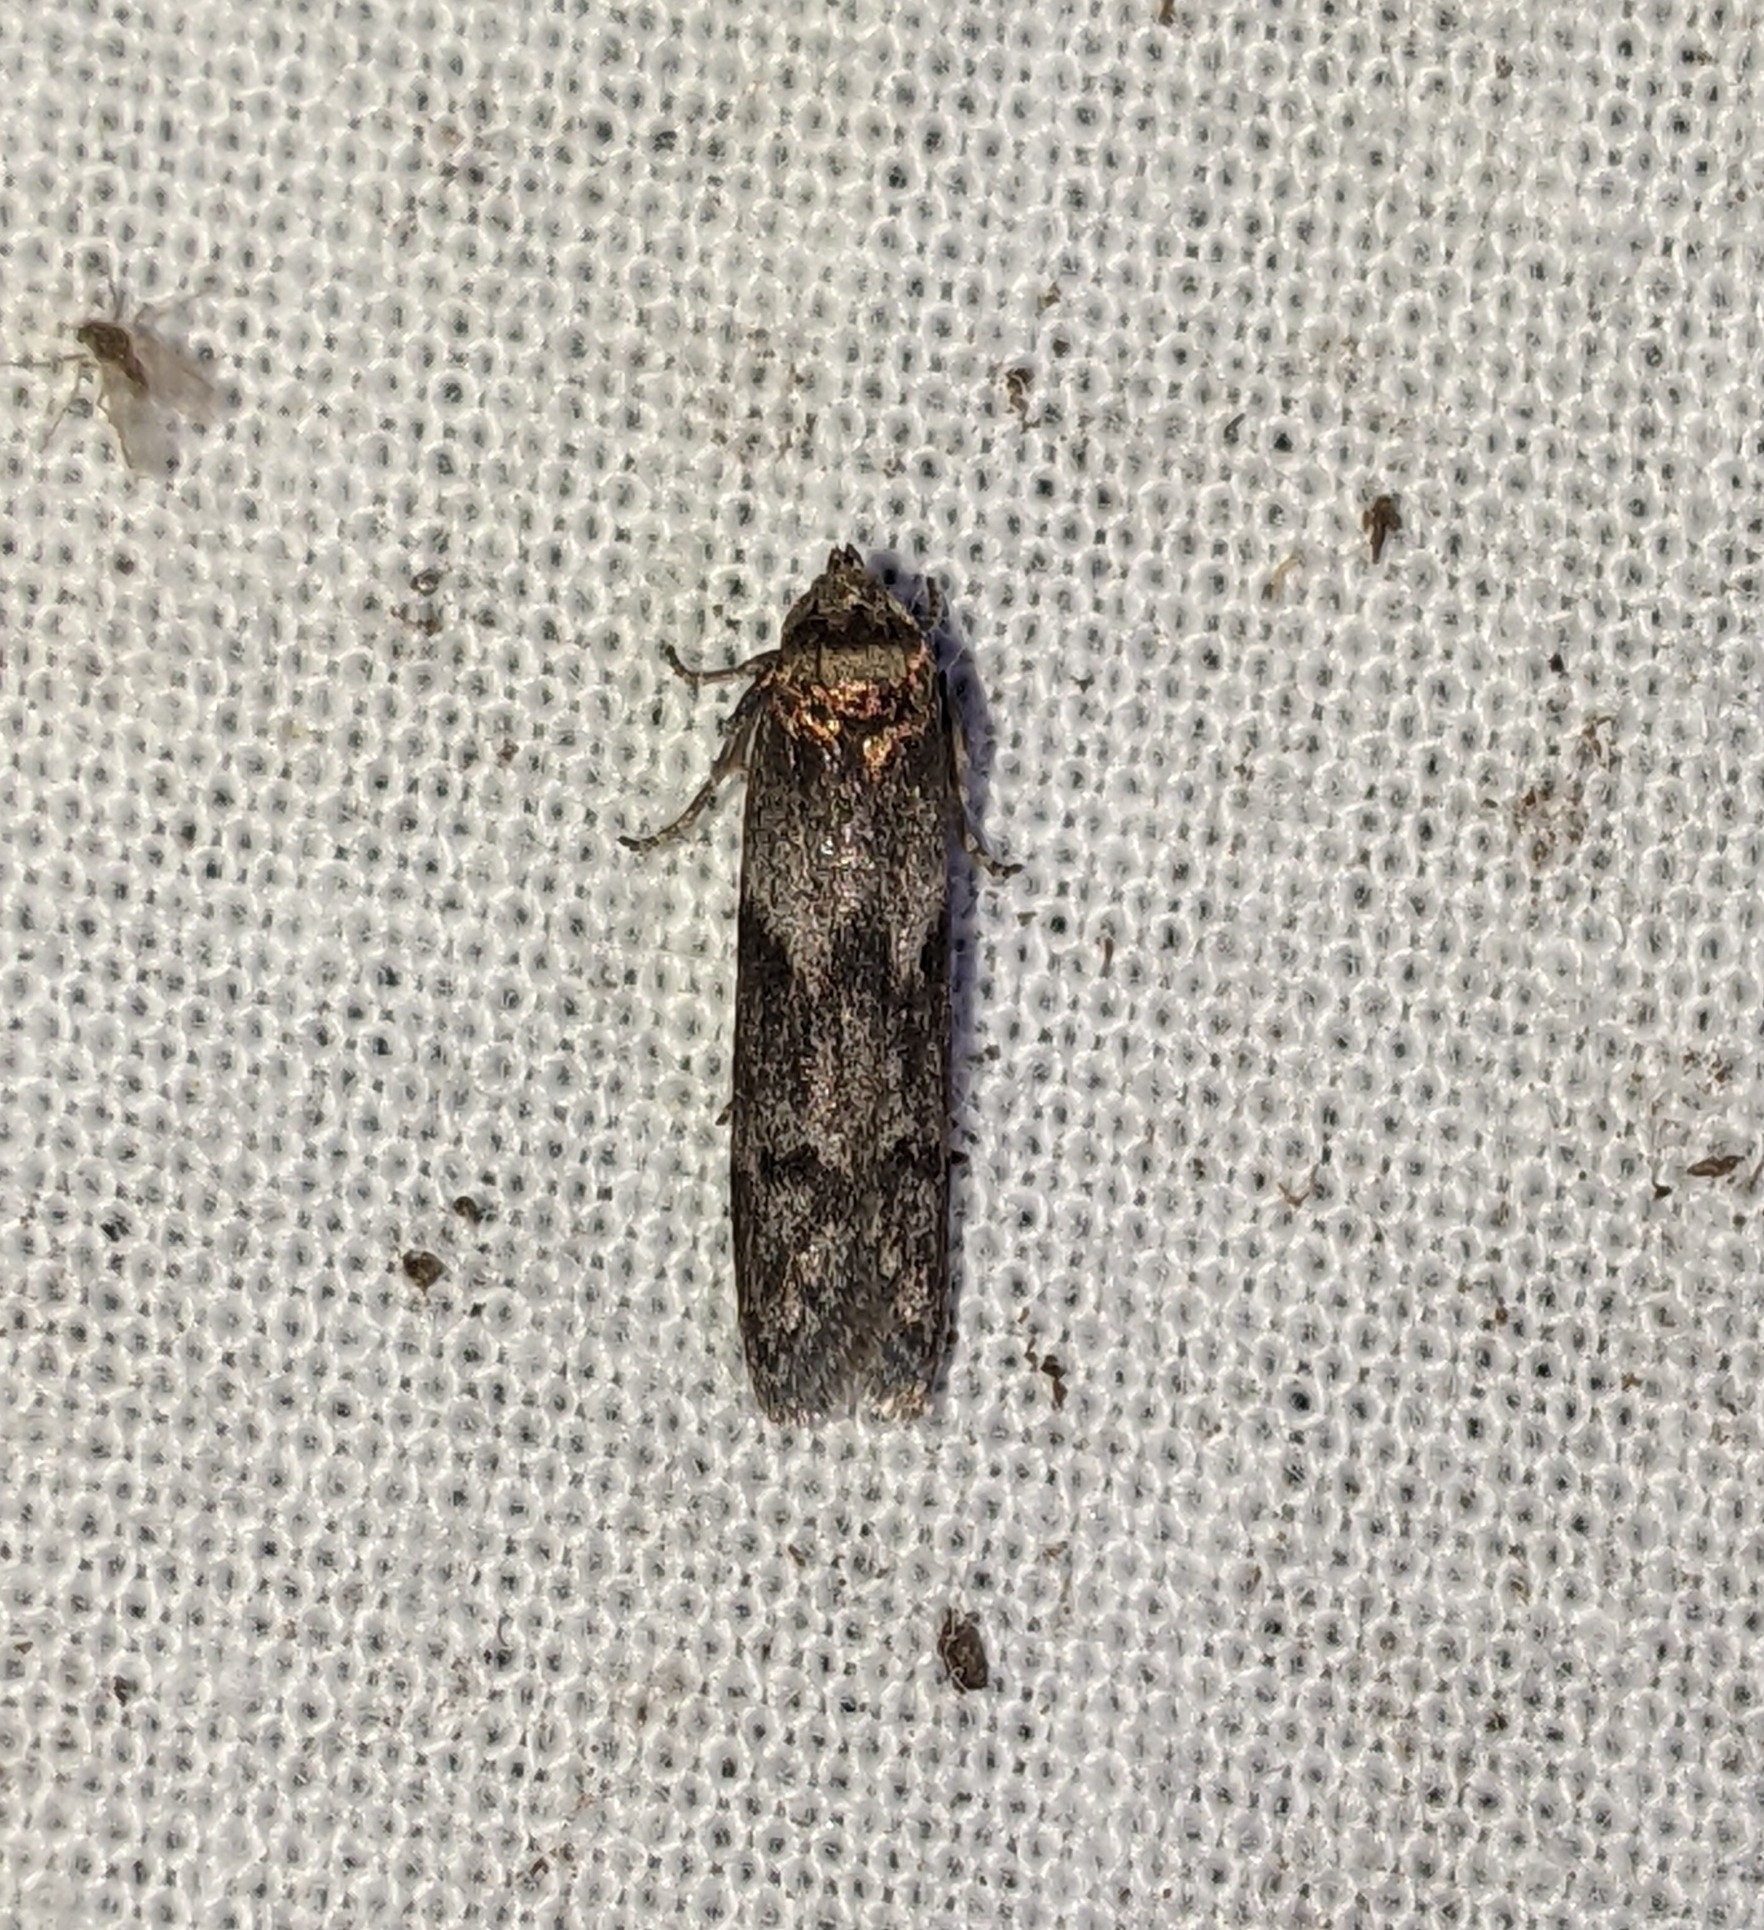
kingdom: Animalia
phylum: Arthropoda
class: Insecta
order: Lepidoptera
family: Blastobasidae
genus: Asaphocrita
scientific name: Asaphocrita aphidiella
